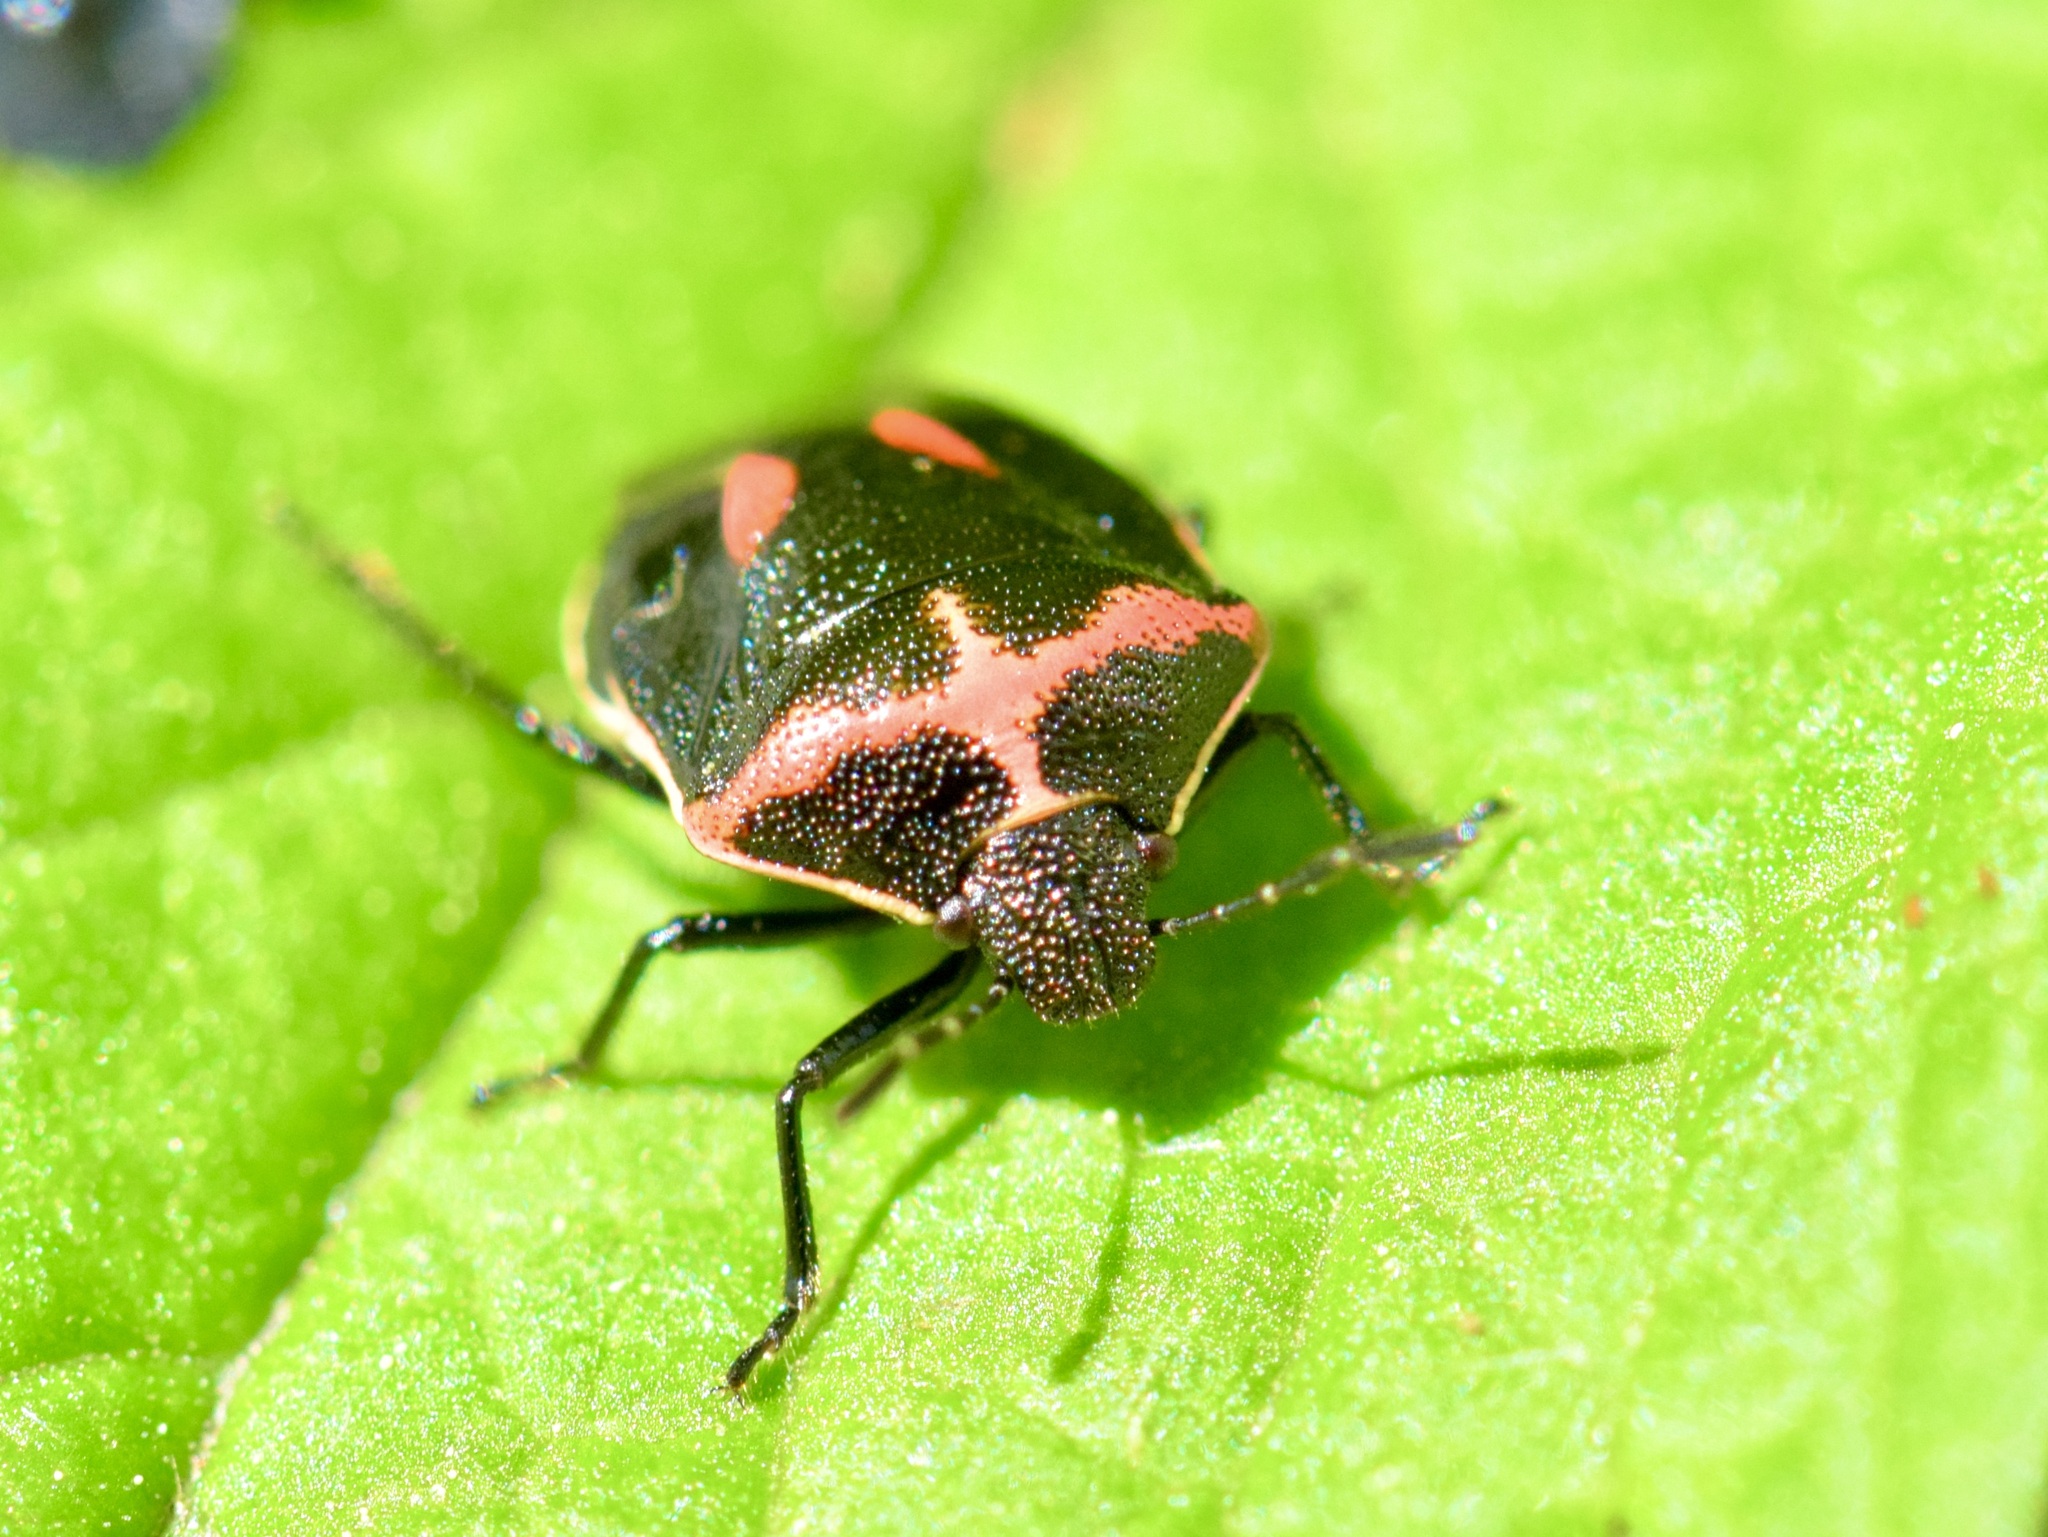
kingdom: Animalia
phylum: Arthropoda
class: Insecta
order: Hemiptera
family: Pentatomidae
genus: Cosmopepla
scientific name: Cosmopepla lintneriana
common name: Twice-stabbed stink bug
